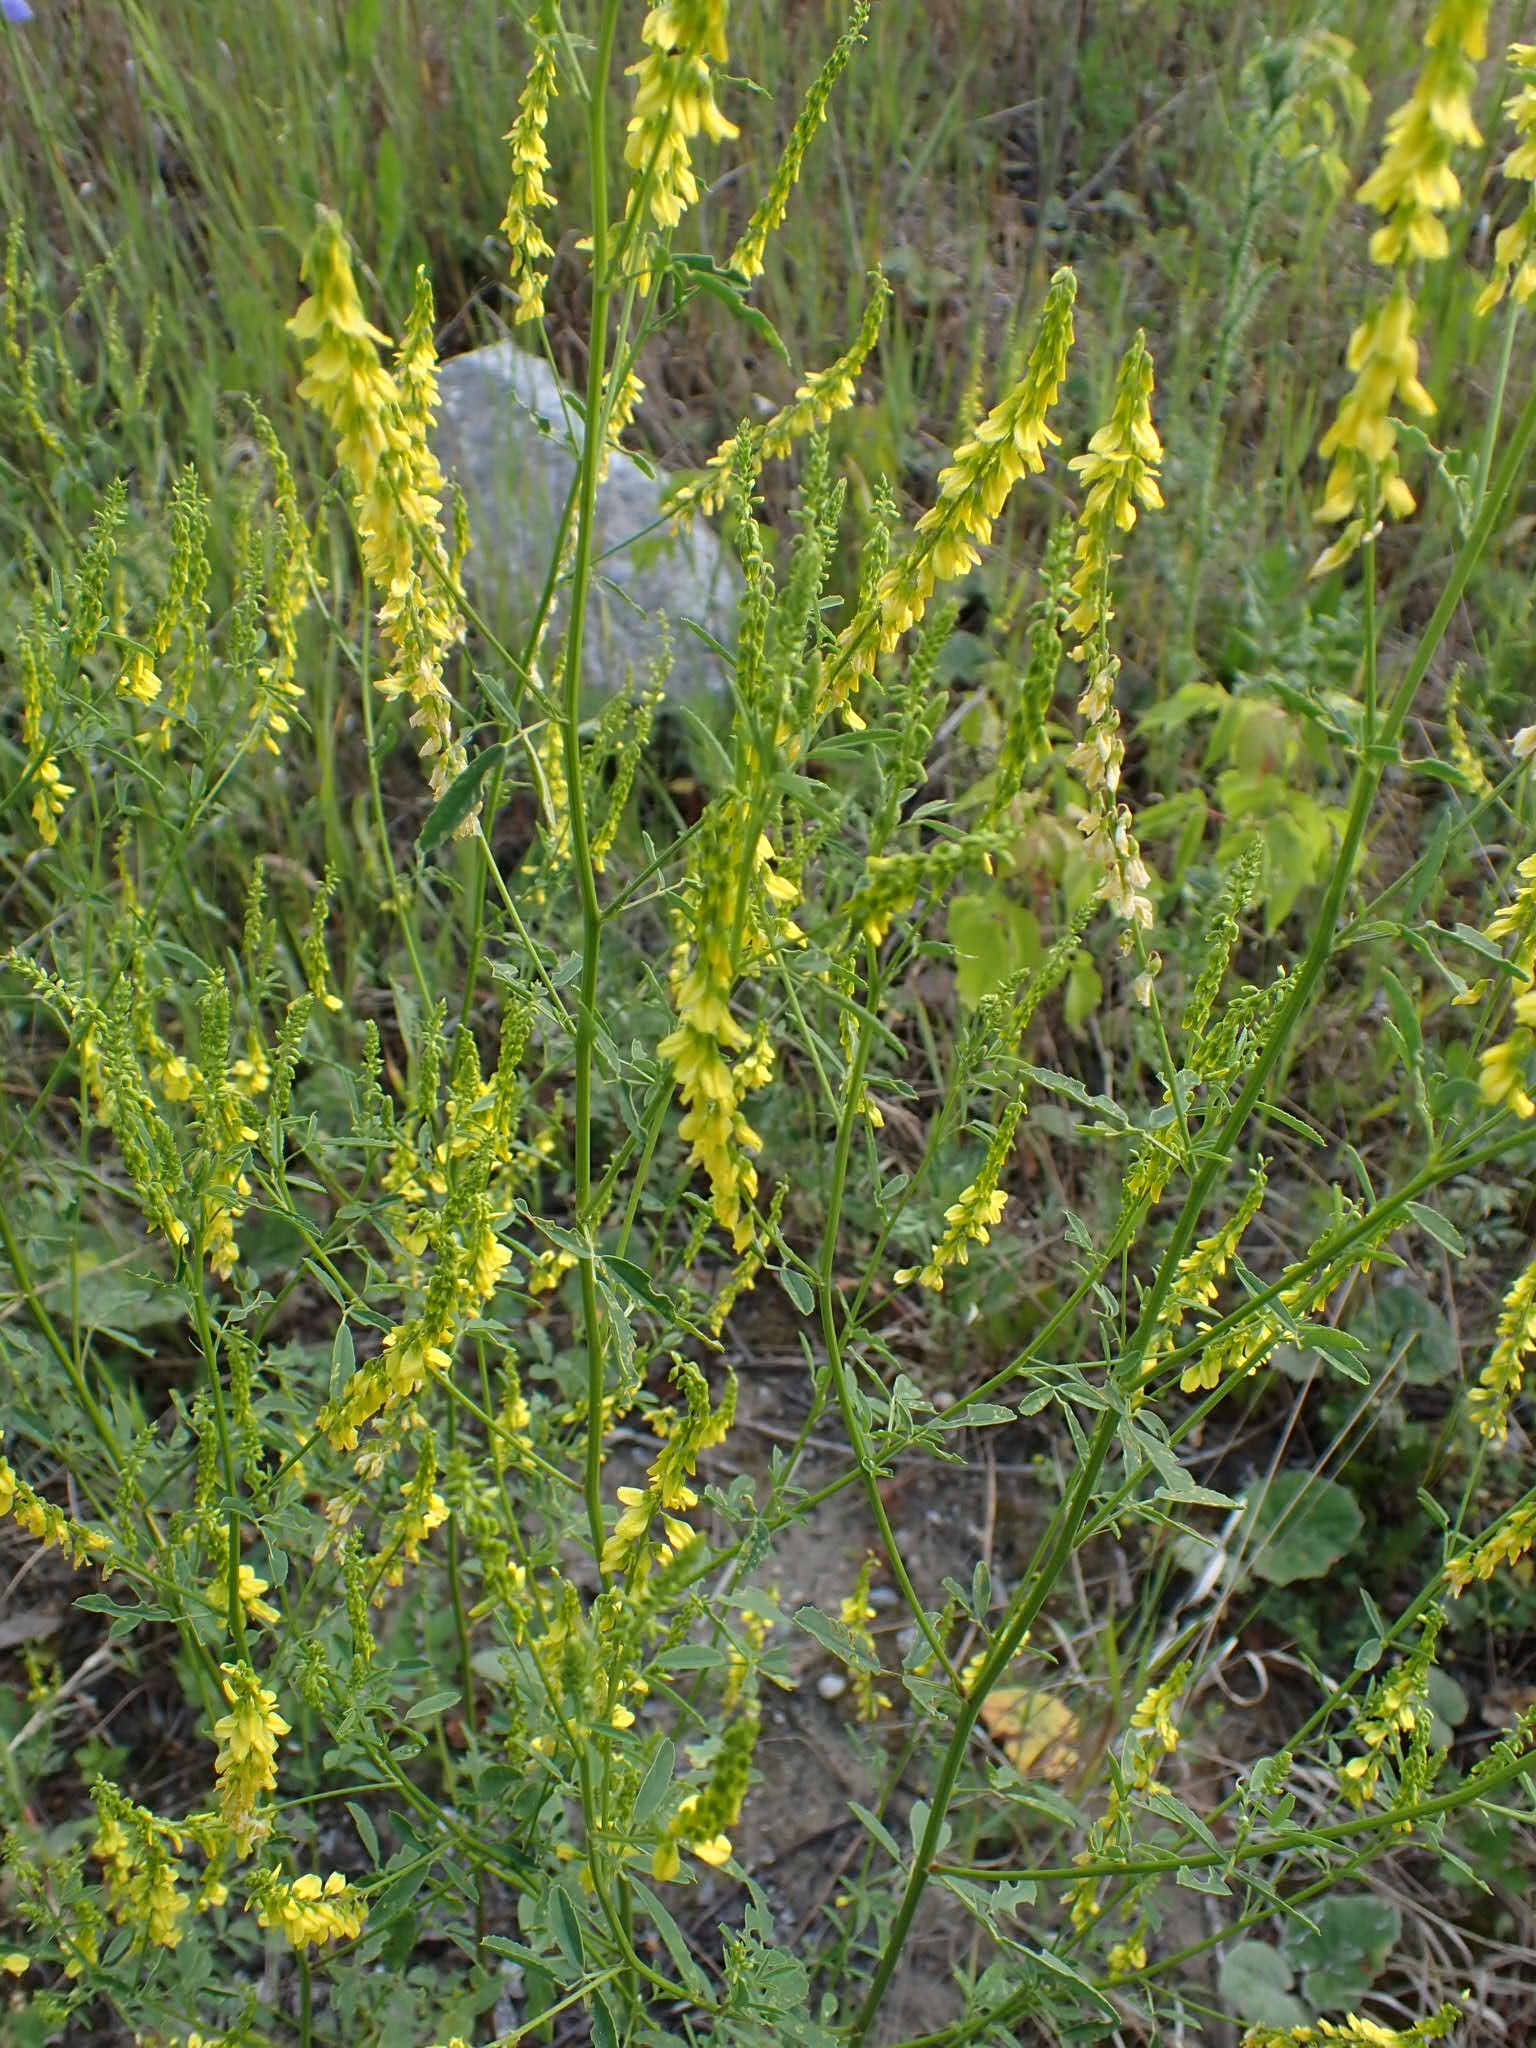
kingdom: Plantae
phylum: Tracheophyta
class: Magnoliopsida
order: Fabales
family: Fabaceae
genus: Melilotus
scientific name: Melilotus officinalis
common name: Sweetclover
